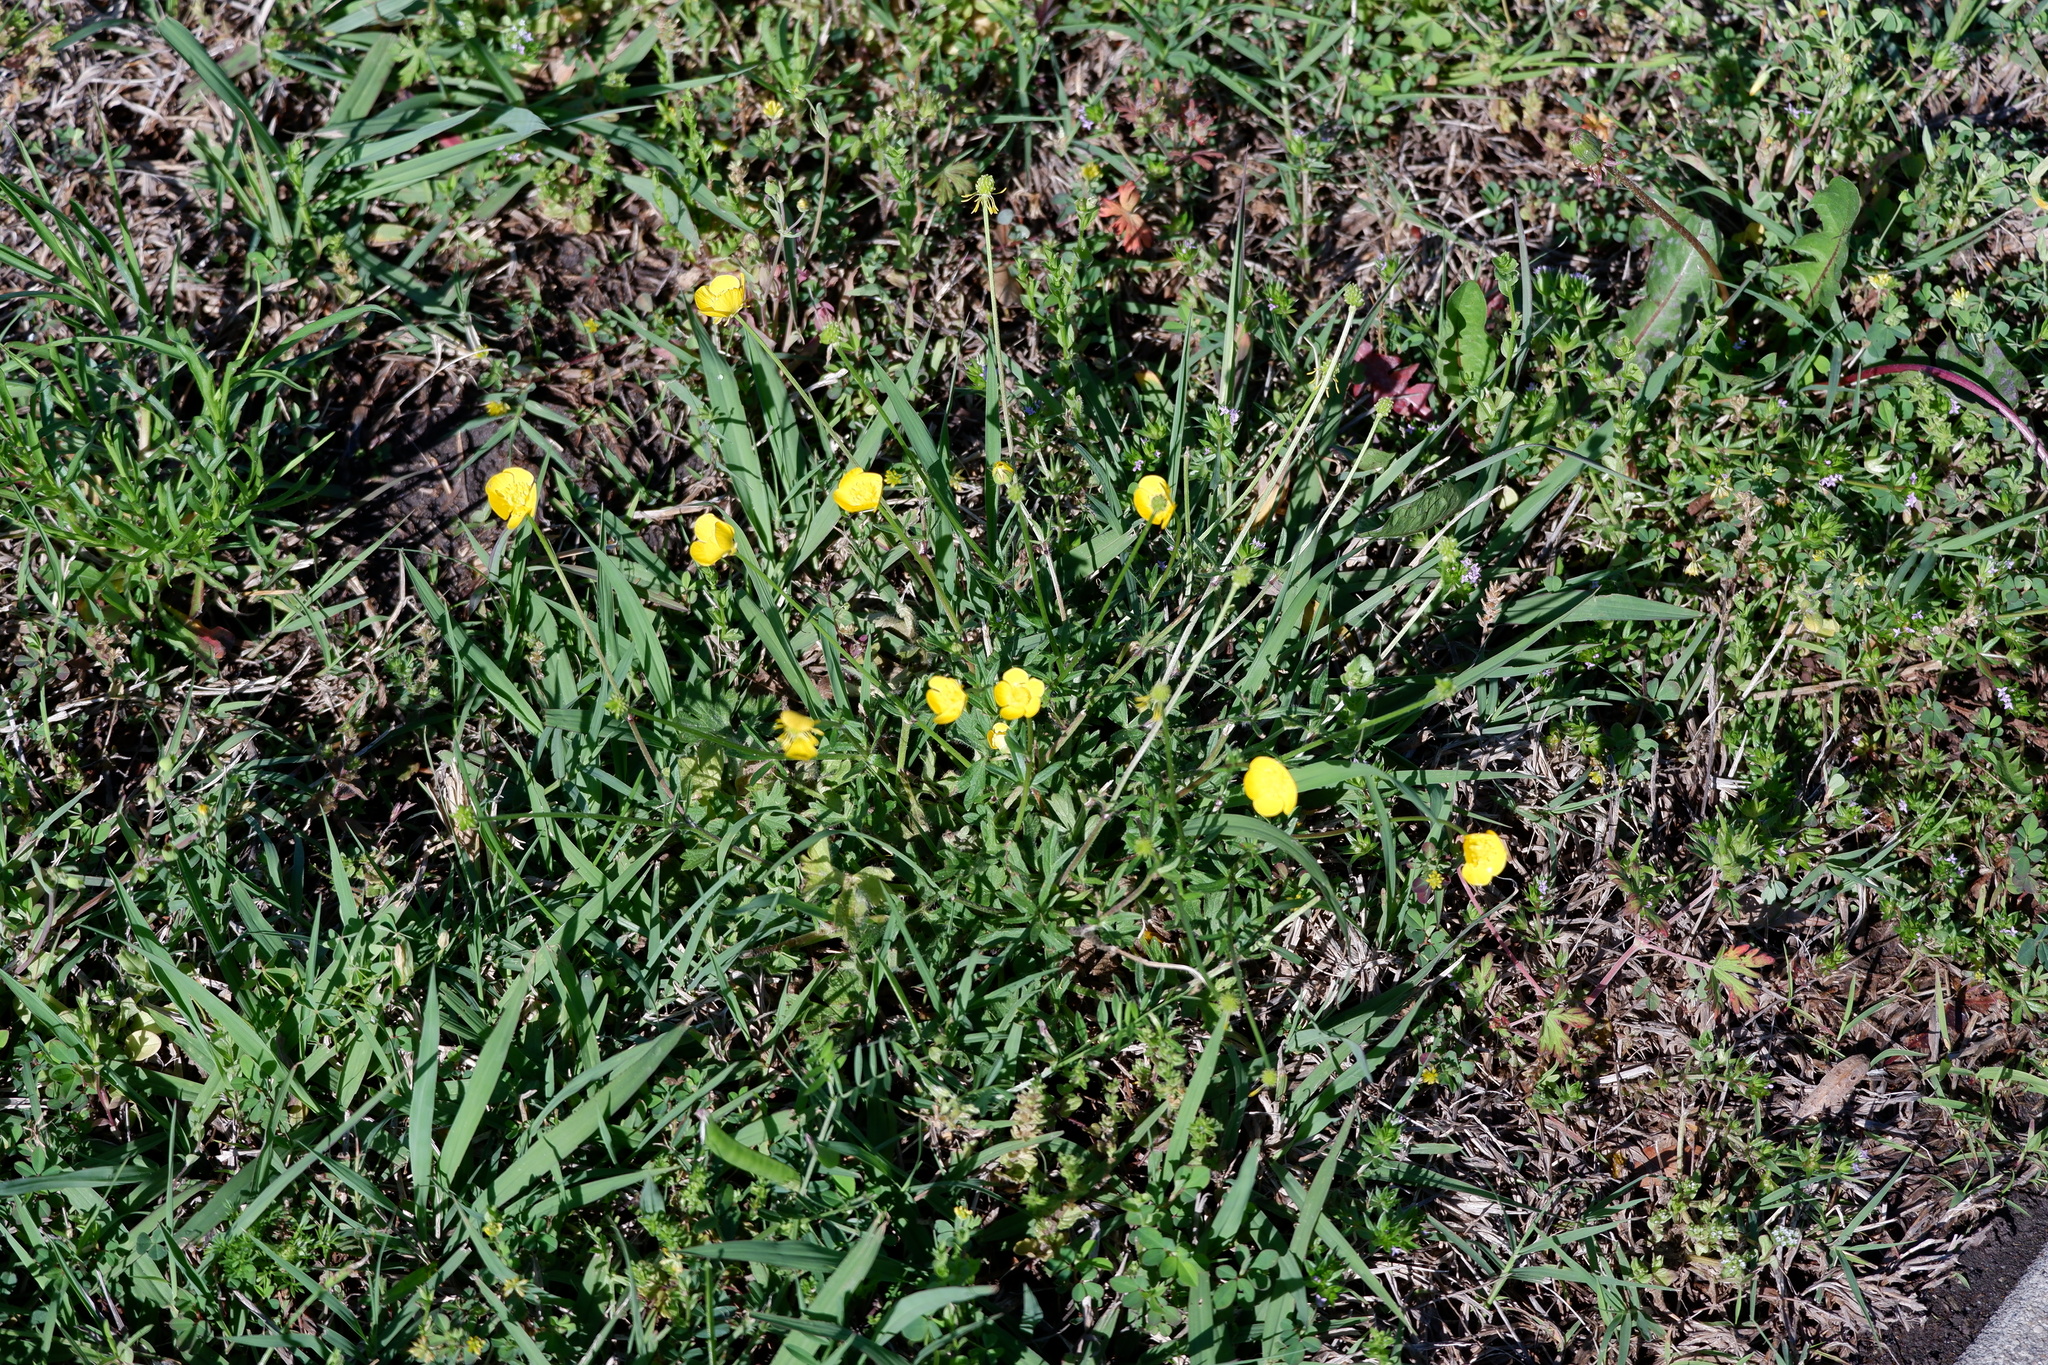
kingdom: Plantae
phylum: Tracheophyta
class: Magnoliopsida
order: Ranunculales
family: Ranunculaceae
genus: Ranunculus
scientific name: Ranunculus bulbosus
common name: Bulbous buttercup
